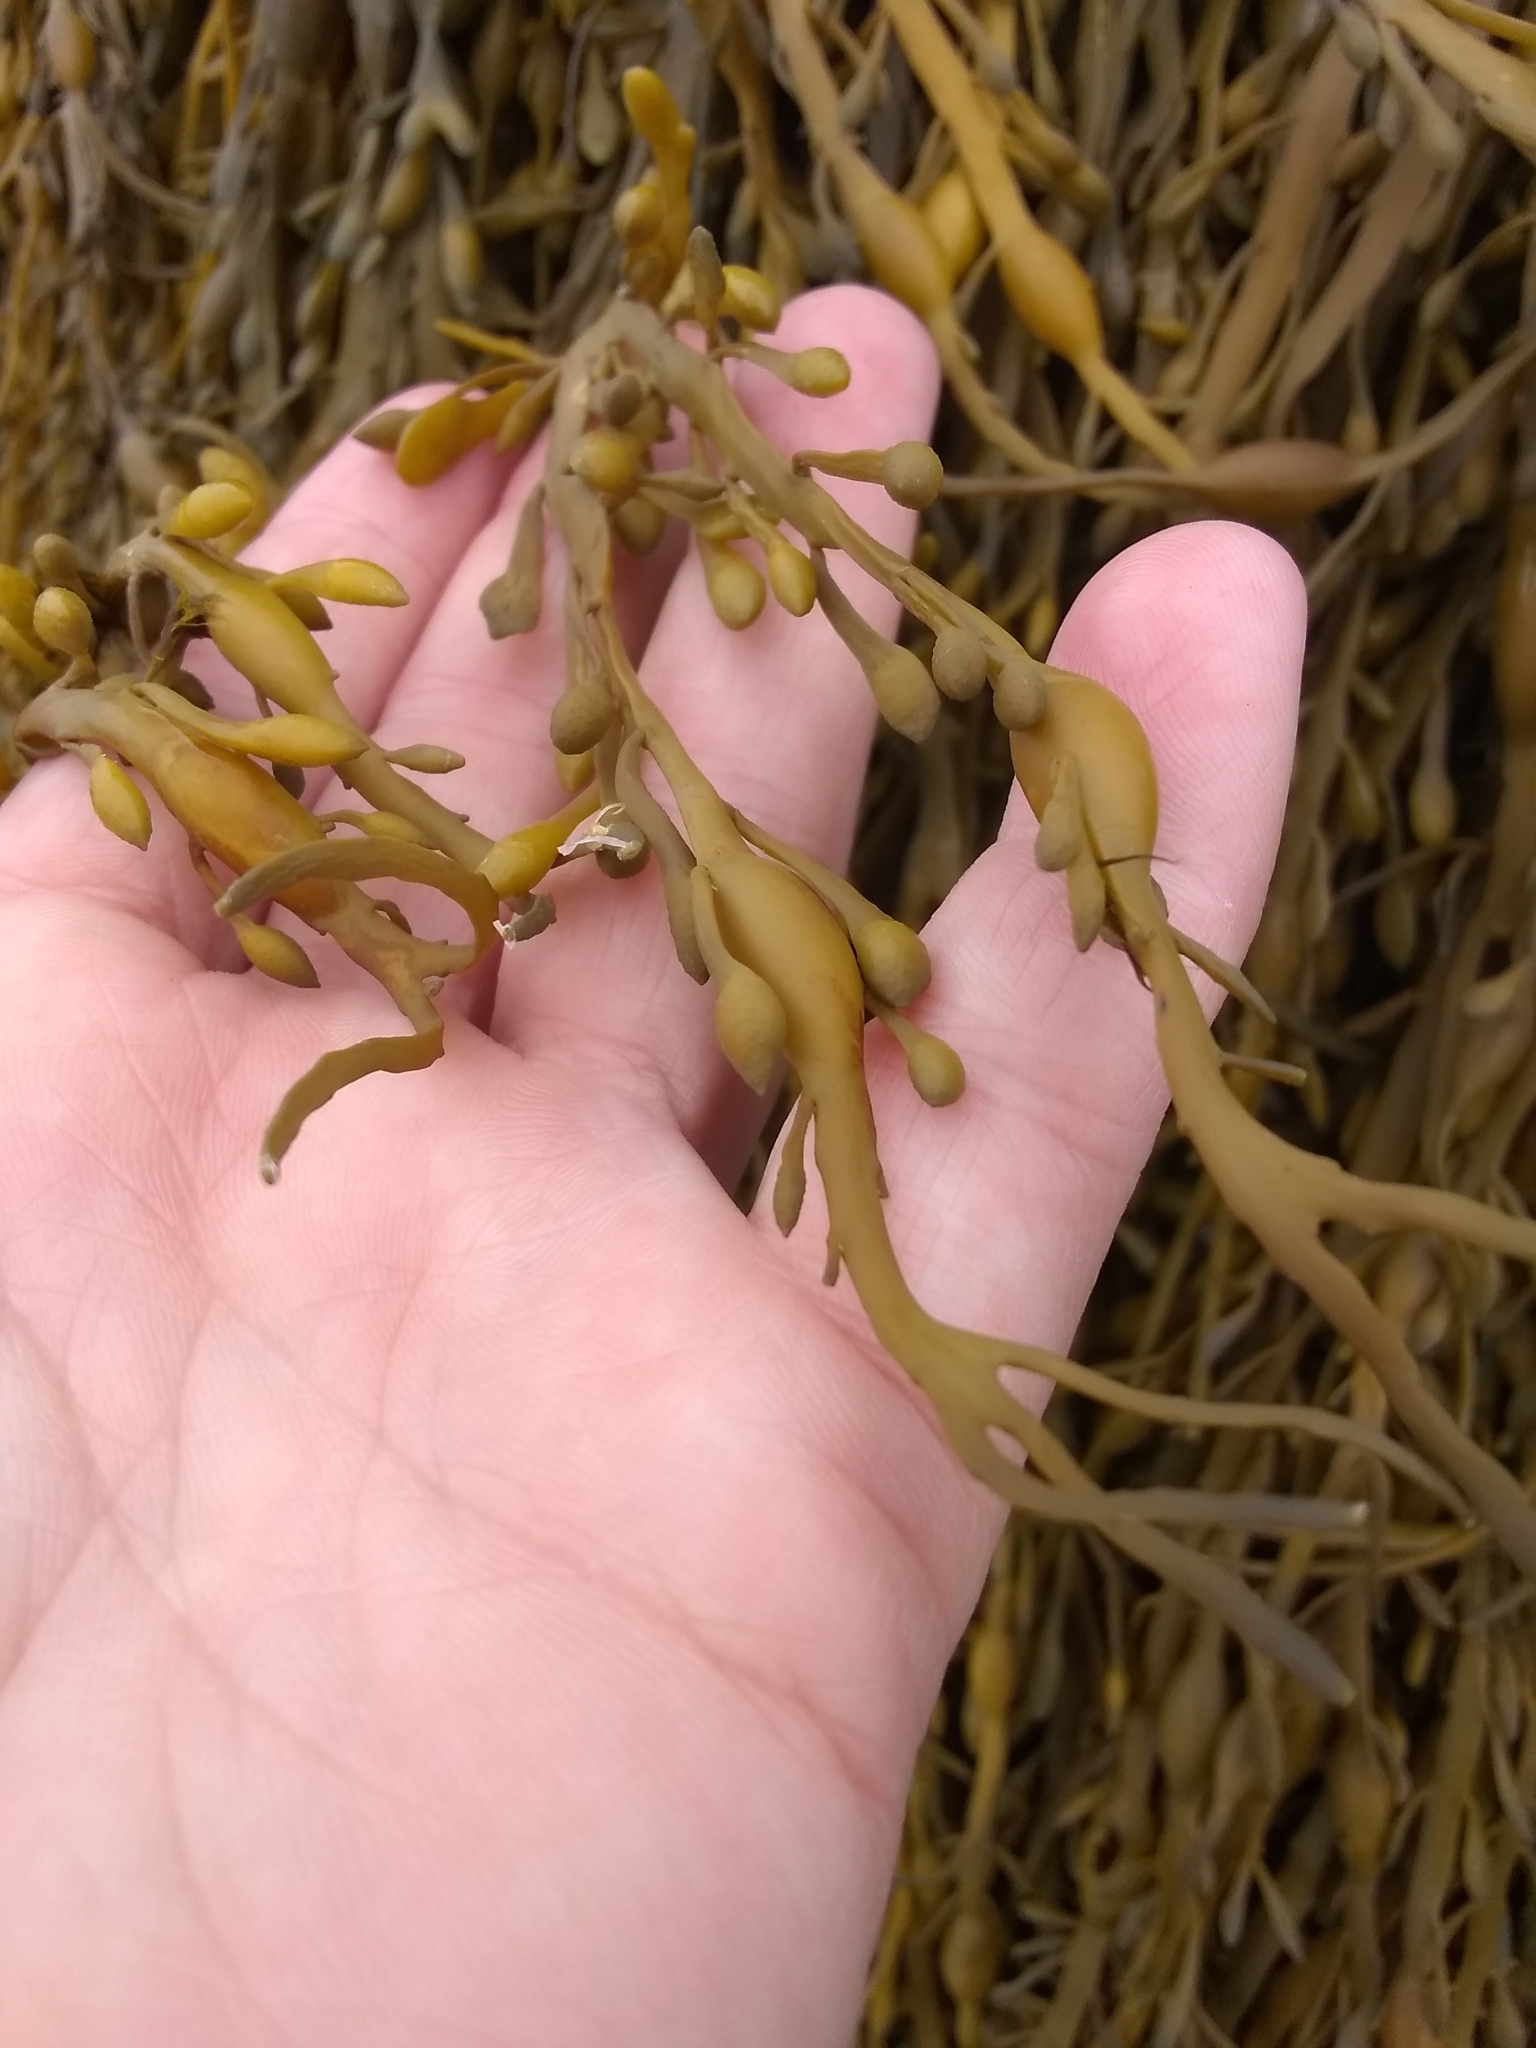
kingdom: Chromista
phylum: Ochrophyta
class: Phaeophyceae
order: Fucales
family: Fucaceae
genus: Ascophyllum
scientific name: Ascophyllum nodosum
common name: Knotted wrack
